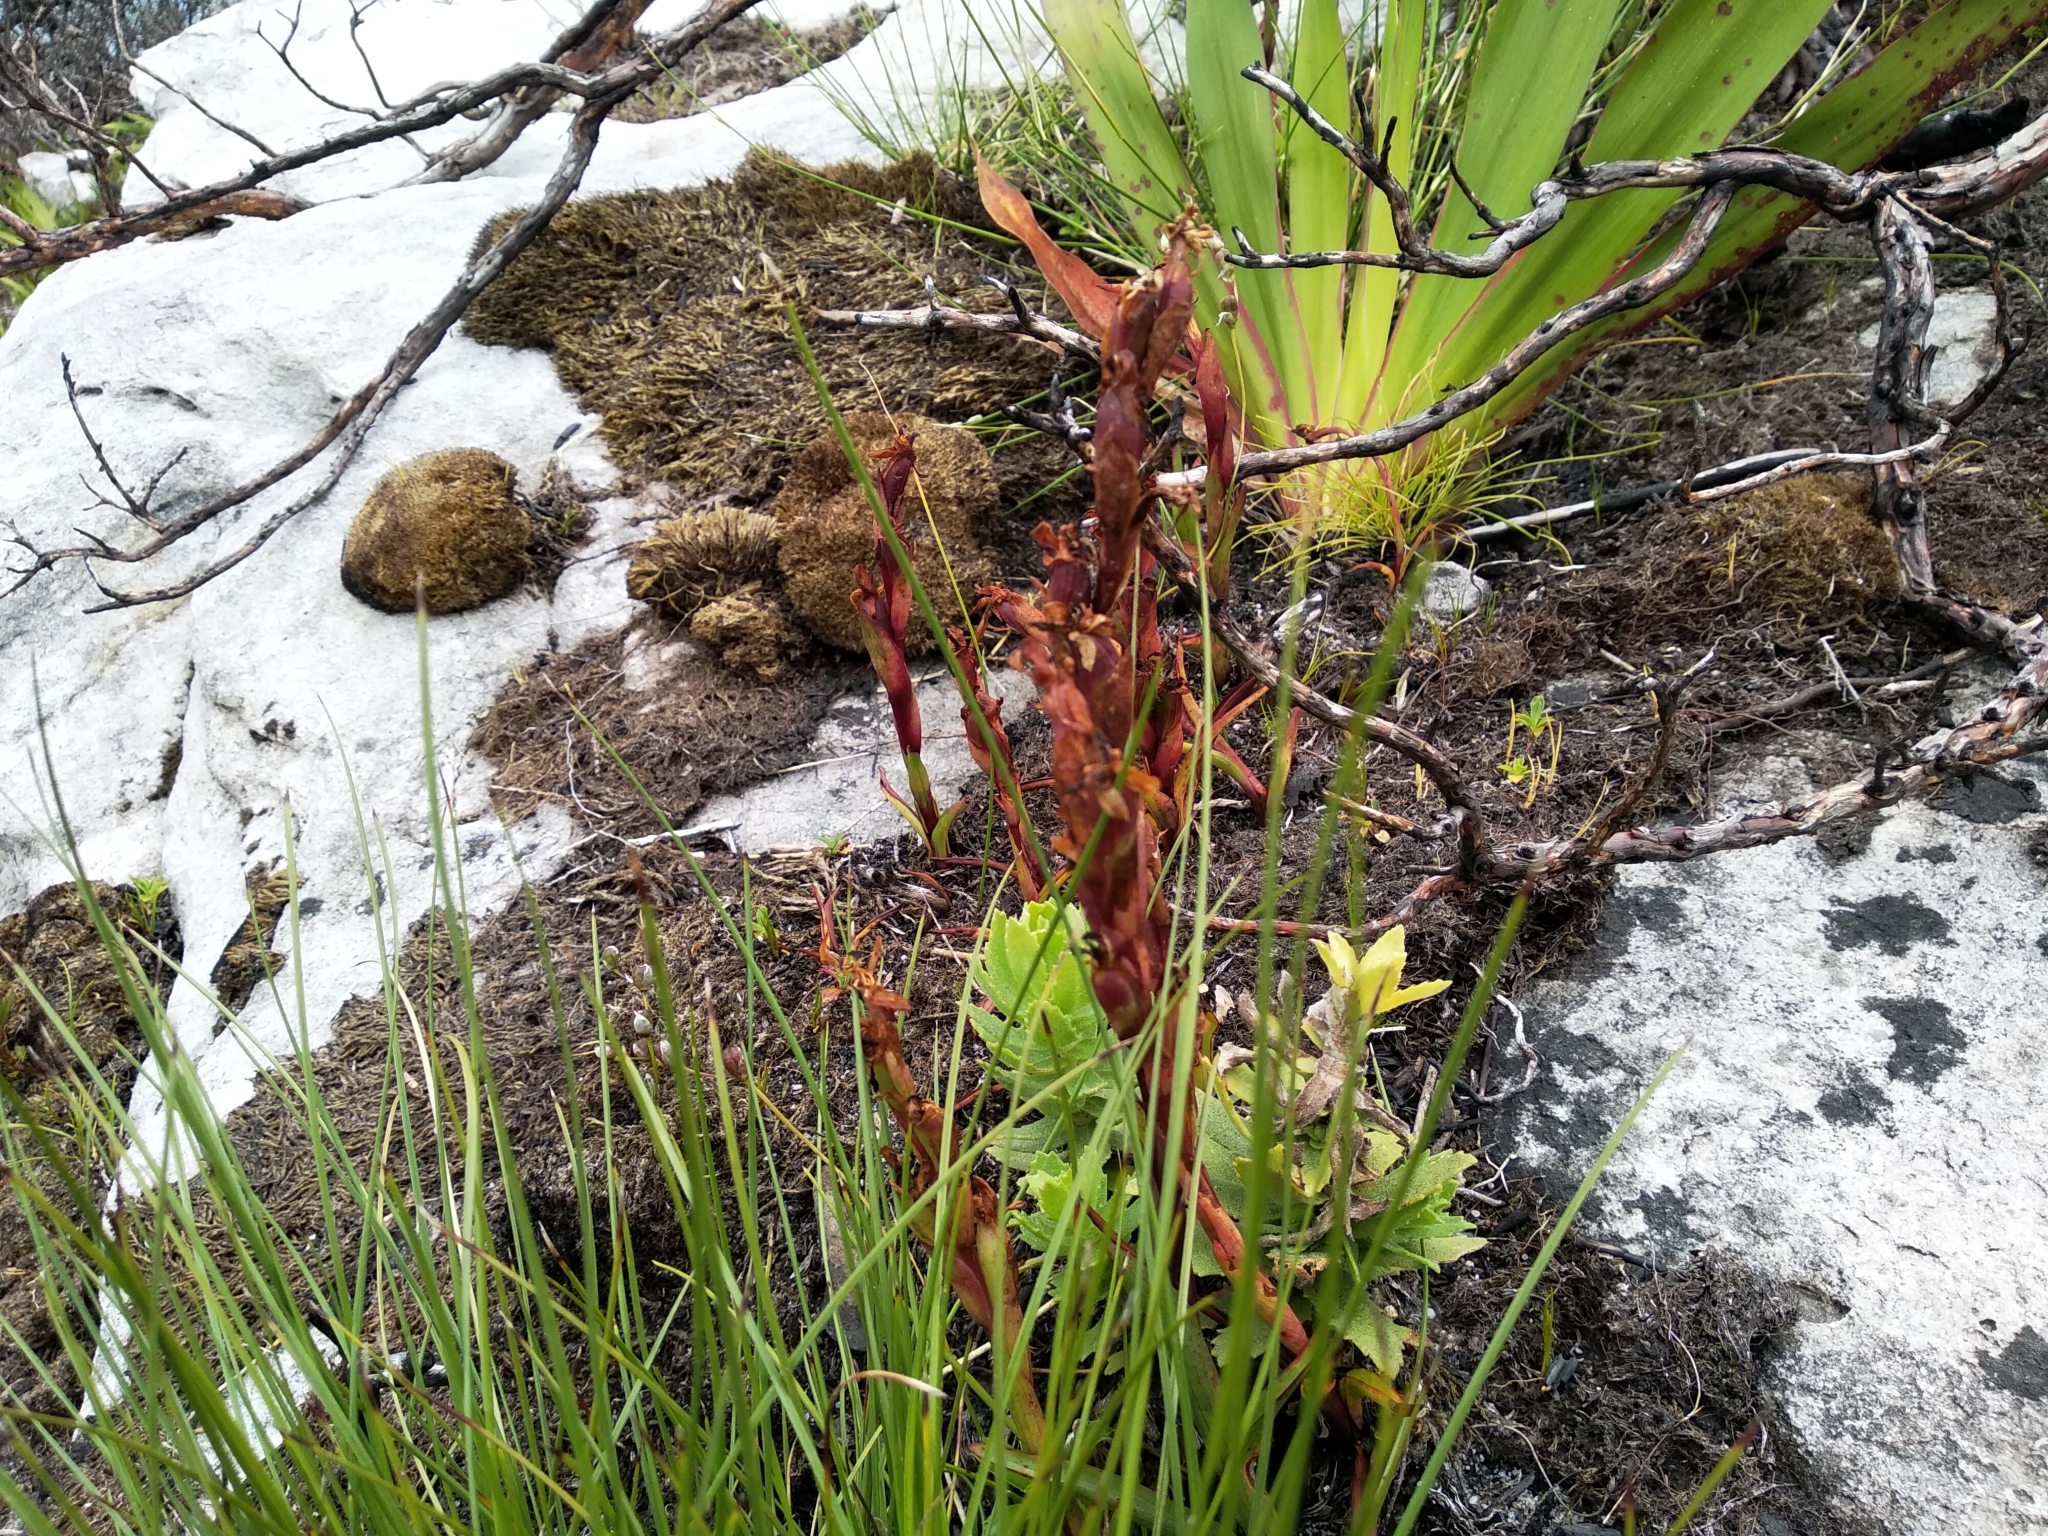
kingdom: Plantae
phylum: Tracheophyta
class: Liliopsida
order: Asparagales
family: Orchidaceae
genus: Disa
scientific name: Disa ophrydea
